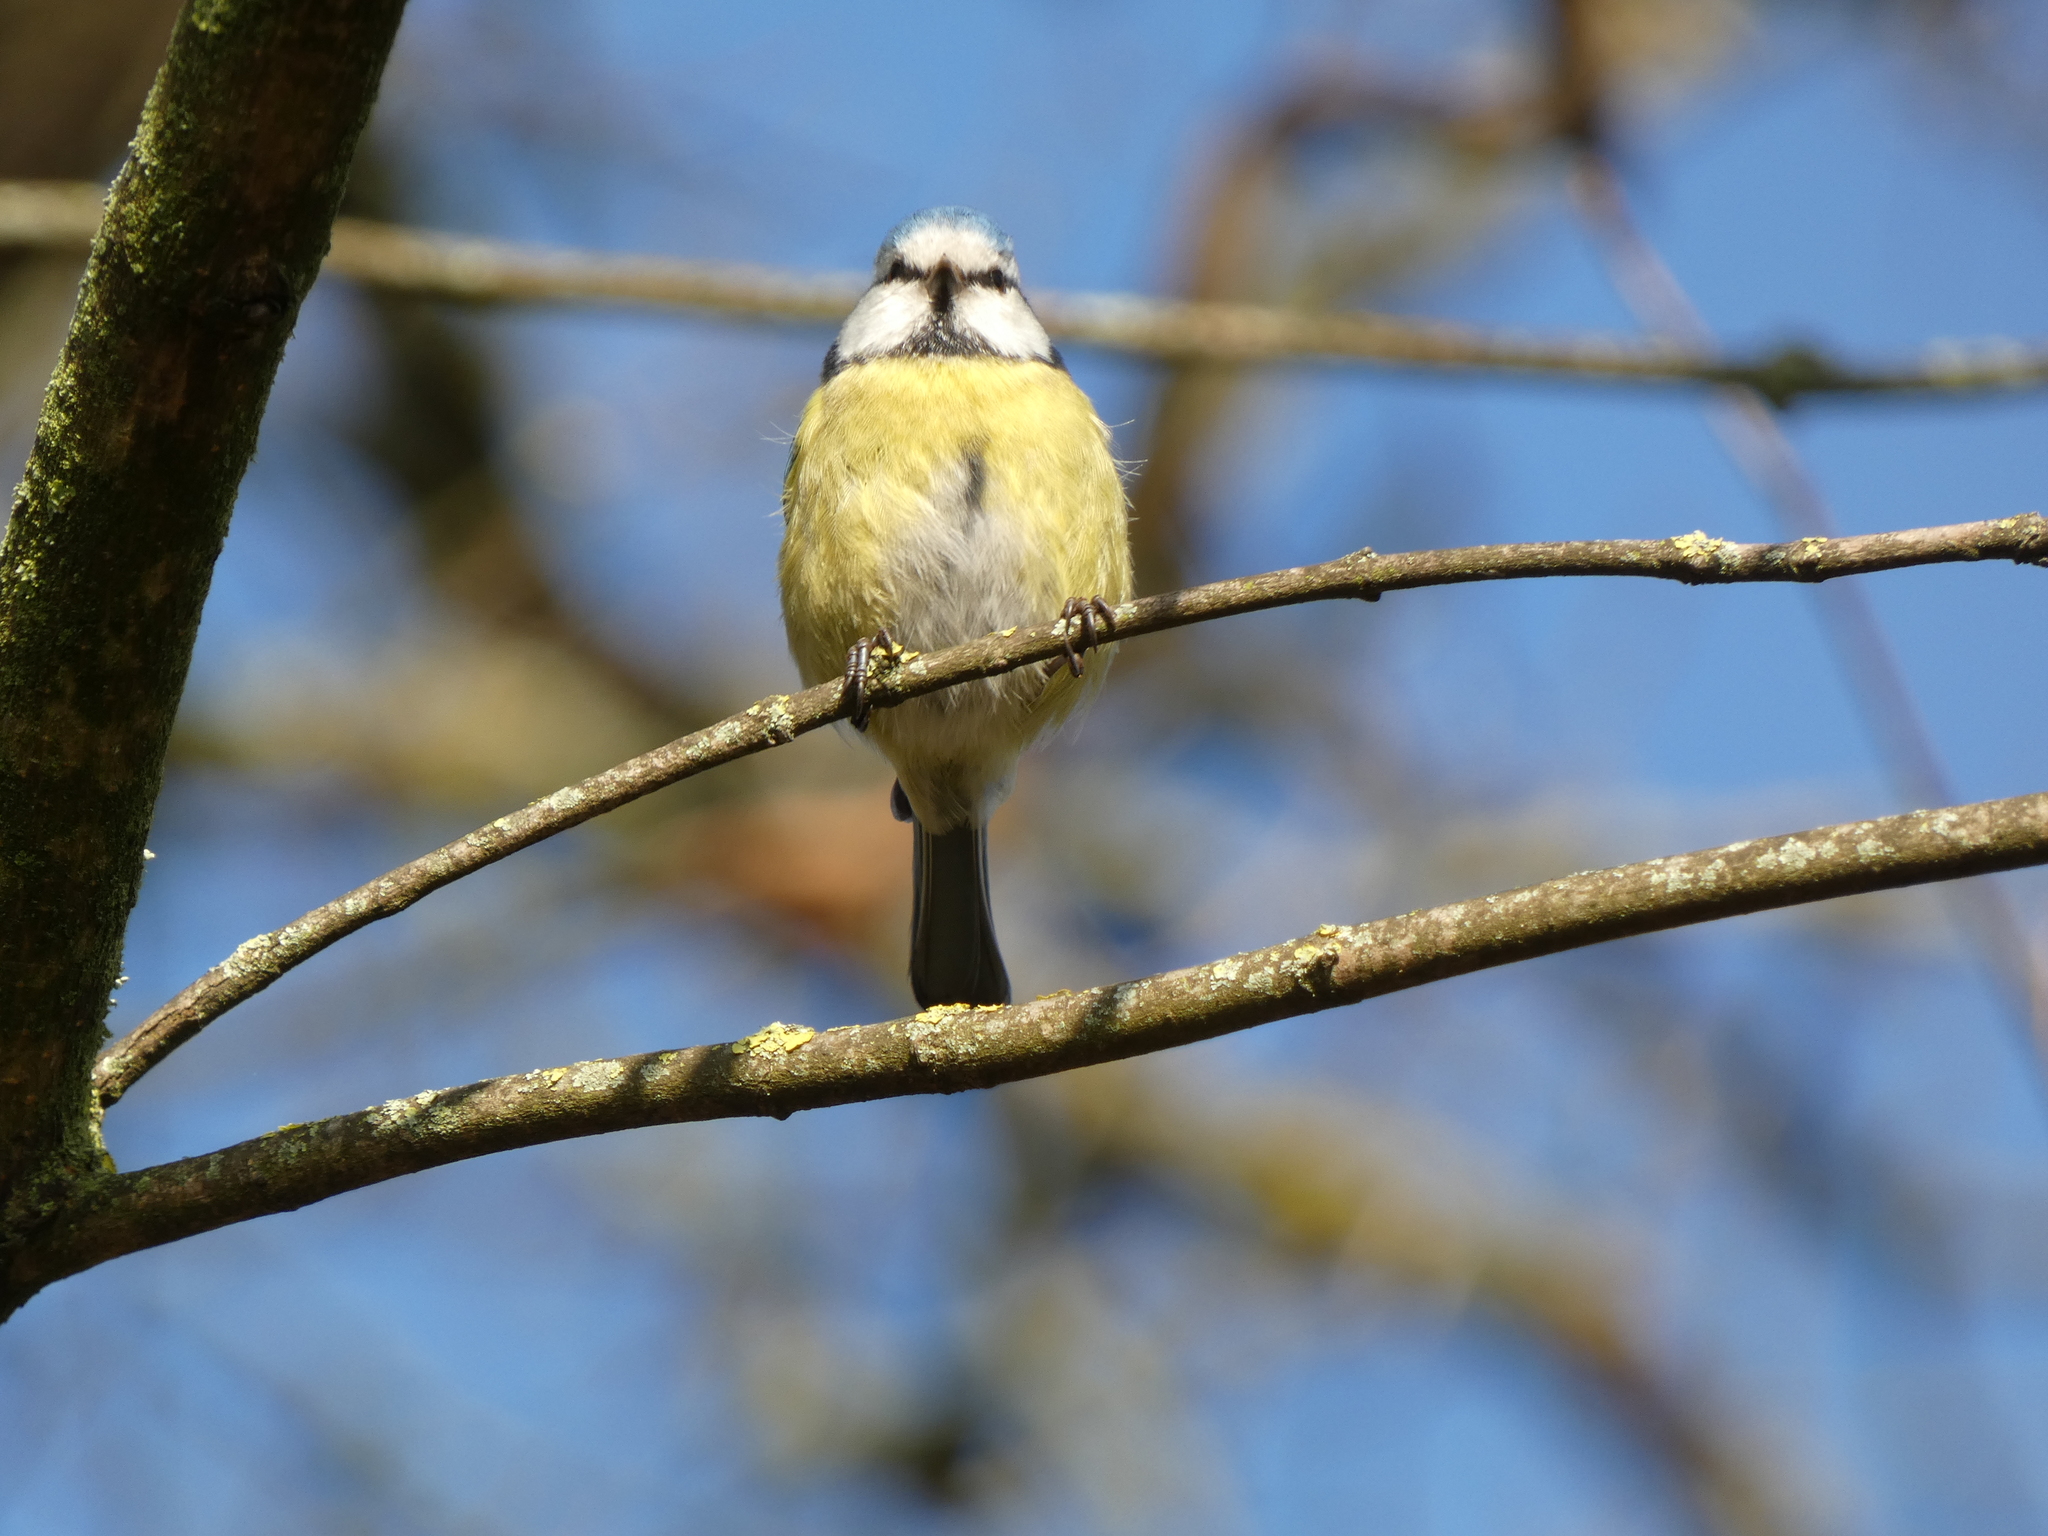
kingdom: Animalia
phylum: Chordata
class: Aves
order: Passeriformes
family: Paridae
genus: Cyanistes
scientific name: Cyanistes caeruleus
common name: Eurasian blue tit
